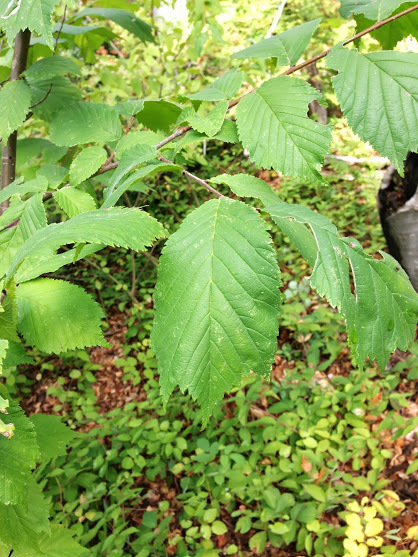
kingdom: Plantae
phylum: Tracheophyta
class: Magnoliopsida
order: Rosales
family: Ulmaceae
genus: Ulmus
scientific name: Ulmus glabra
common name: Wych elm
